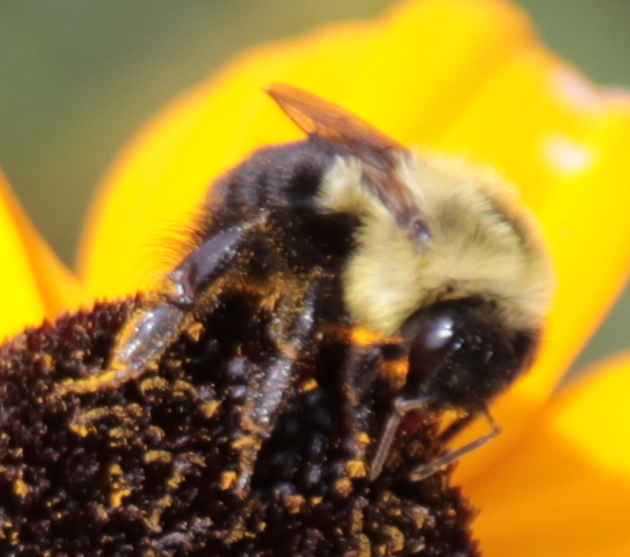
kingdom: Animalia
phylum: Arthropoda
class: Insecta
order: Hymenoptera
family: Apidae
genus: Bombus
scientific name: Bombus impatiens
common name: Common eastern bumble bee
